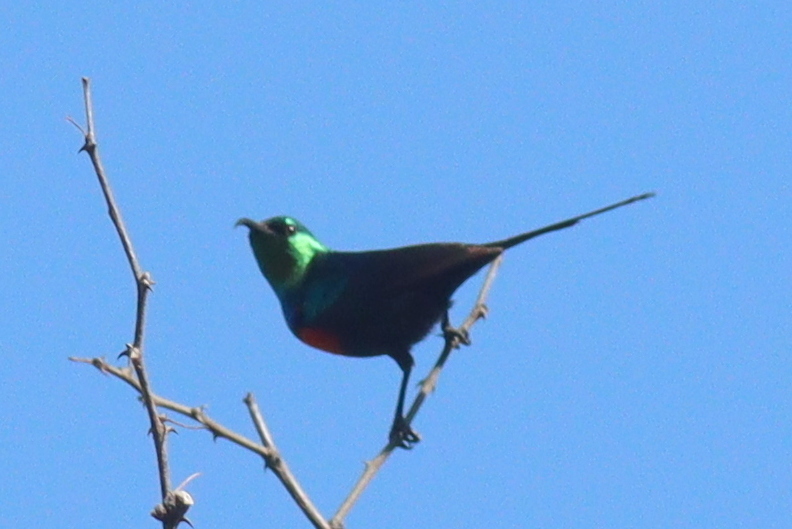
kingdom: Animalia
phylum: Chordata
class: Aves
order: Passeriformes
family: Nectariniidae
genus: Cinnyris
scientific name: Cinnyris nectarinioides
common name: Black-bellied sunbird
